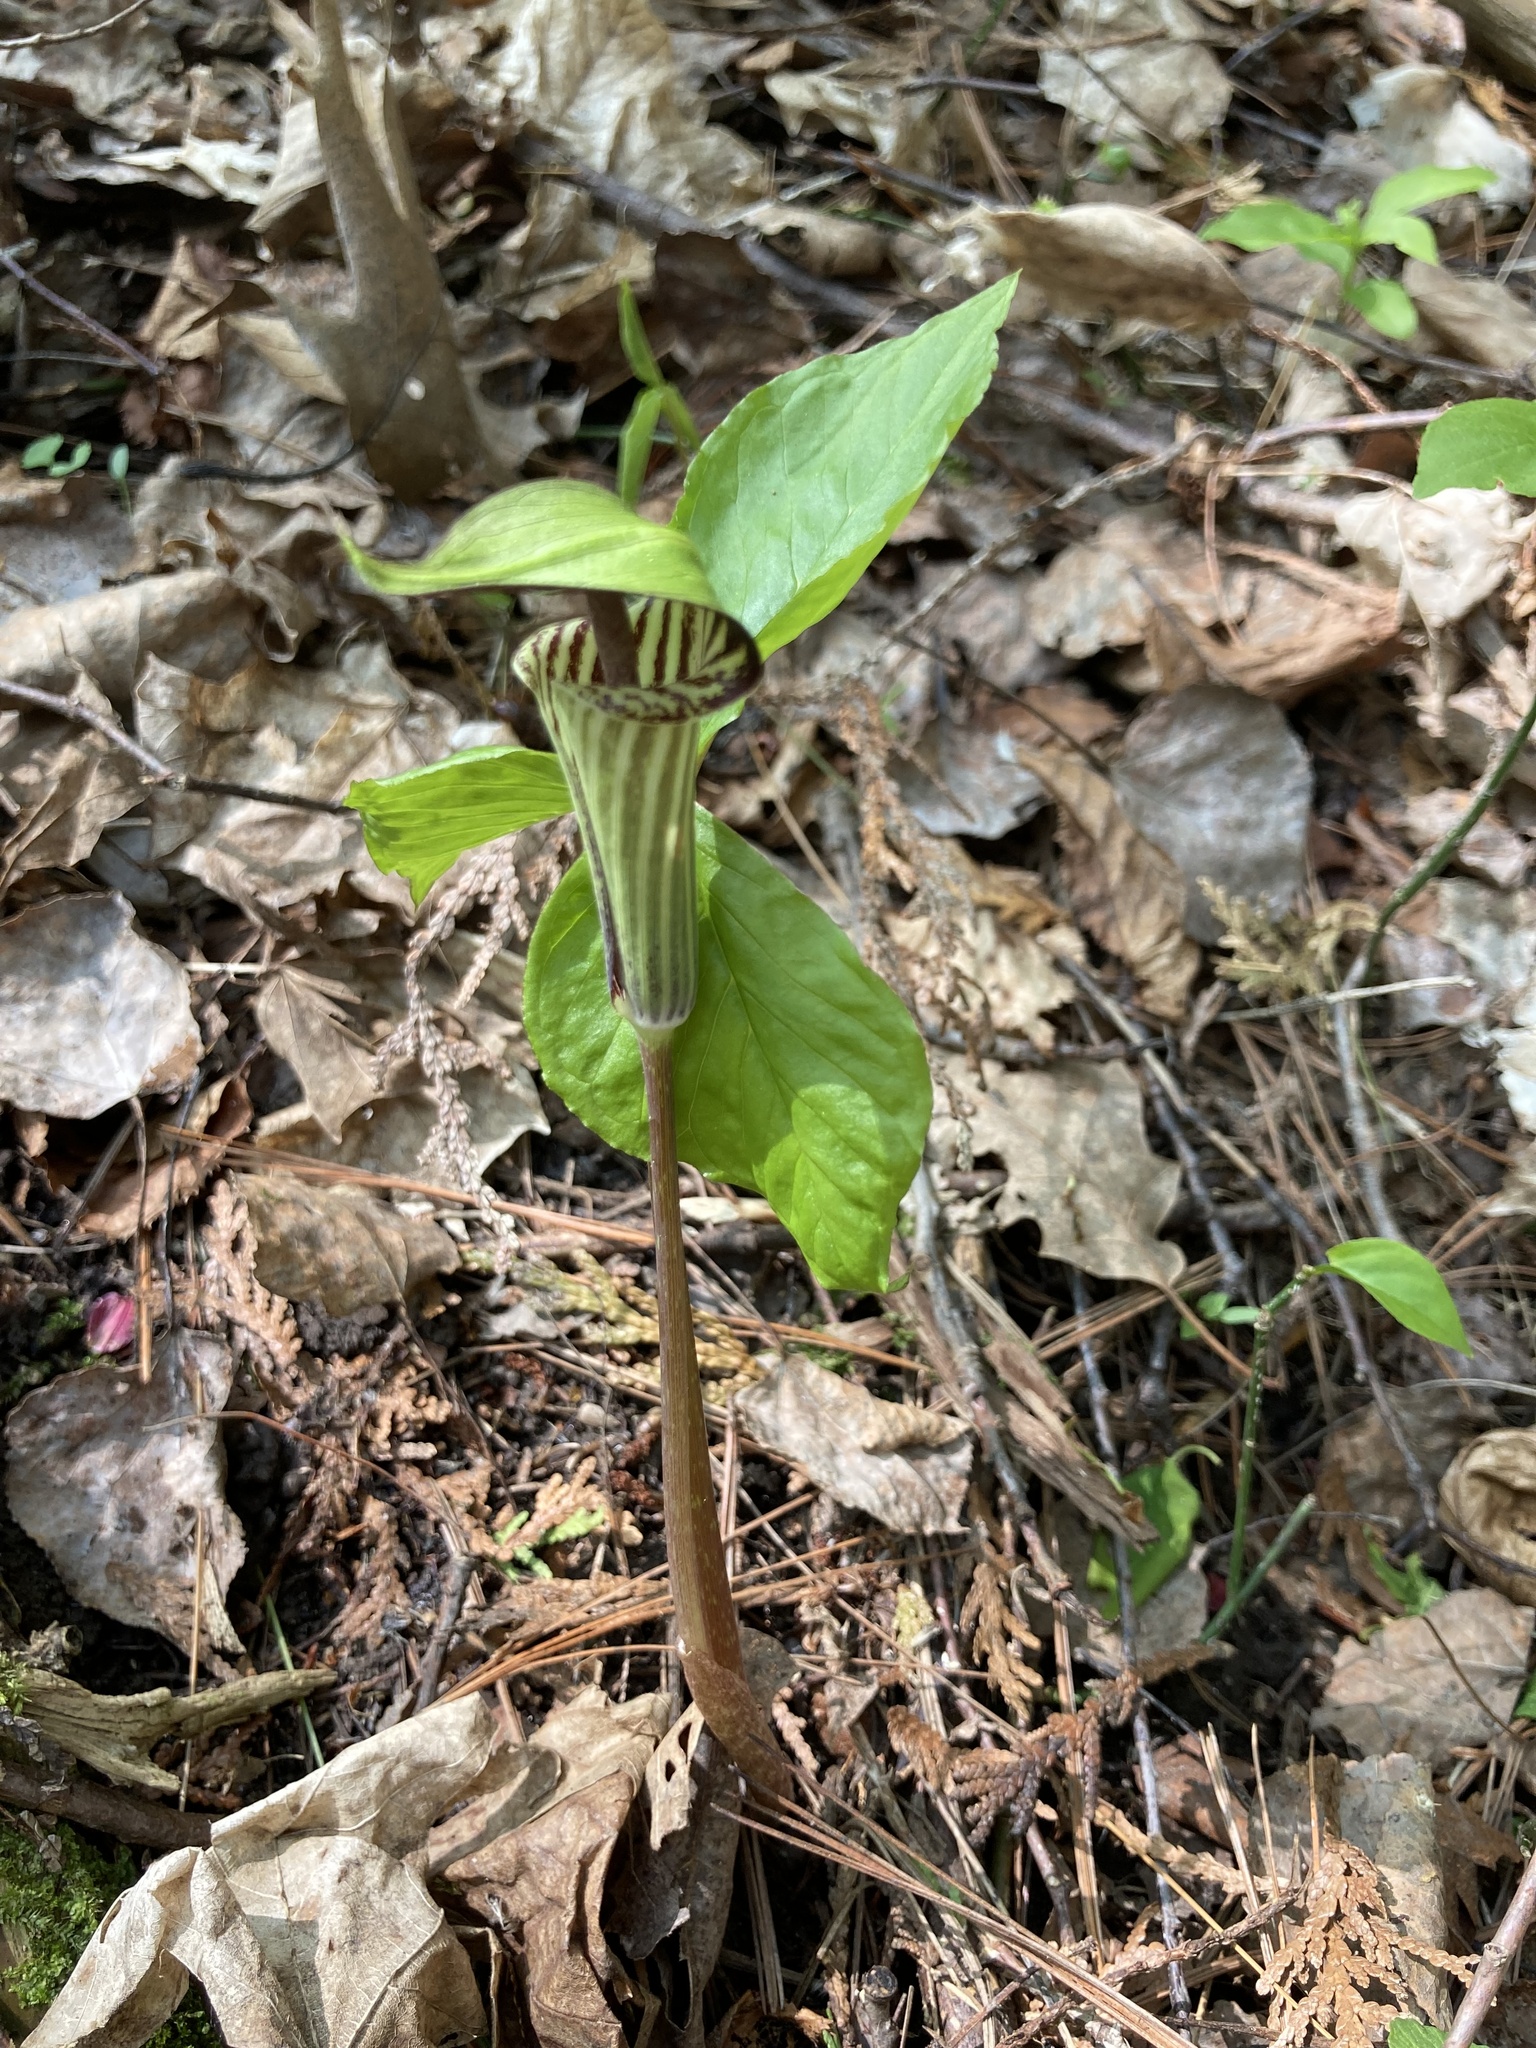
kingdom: Plantae
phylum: Tracheophyta
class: Liliopsida
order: Alismatales
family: Araceae
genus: Arisaema
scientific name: Arisaema triphyllum
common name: Jack-in-the-pulpit
